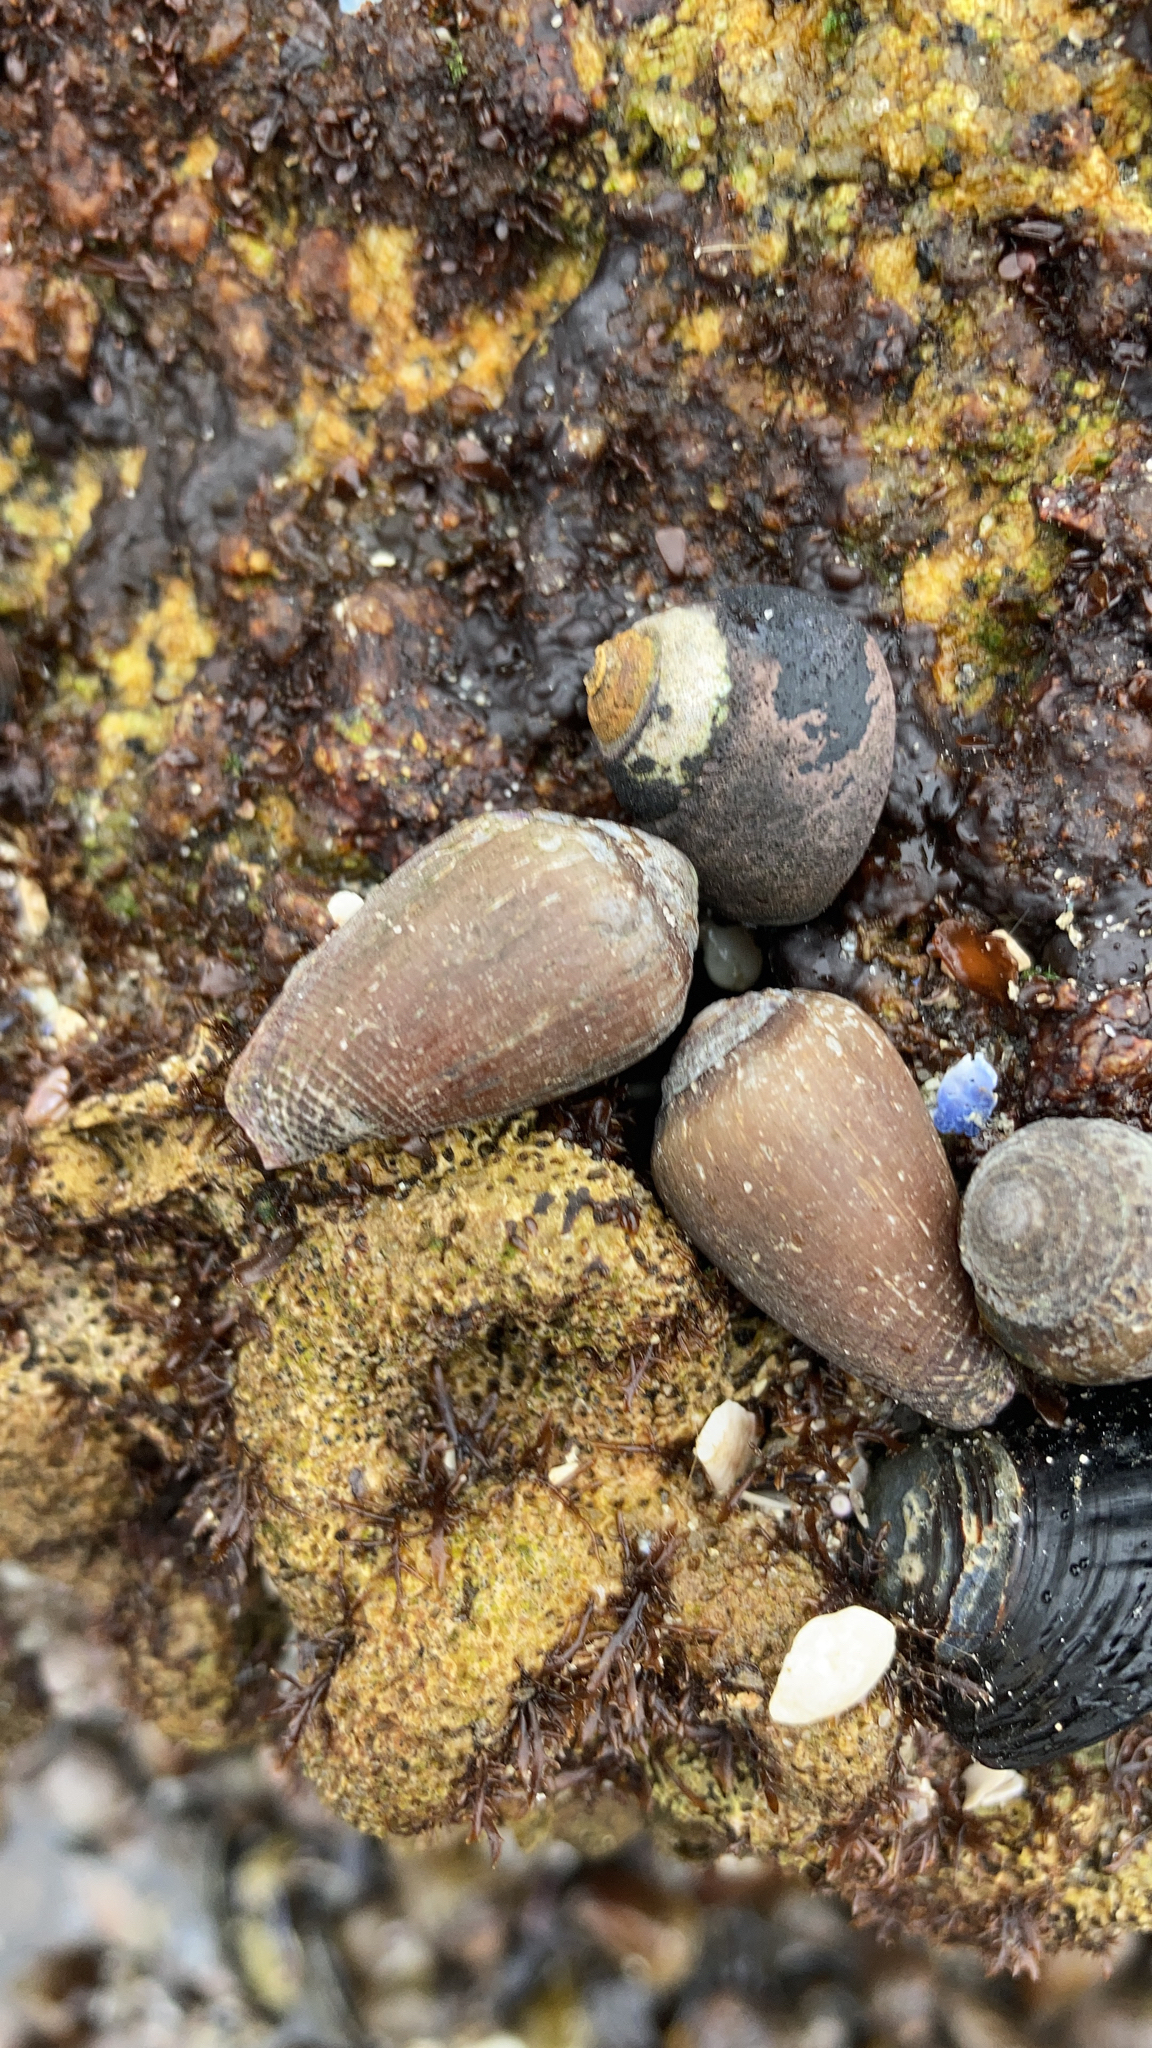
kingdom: Animalia
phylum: Mollusca
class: Gastropoda
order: Neogastropoda
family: Conidae
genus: Californiconus
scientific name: Californiconus californicus
